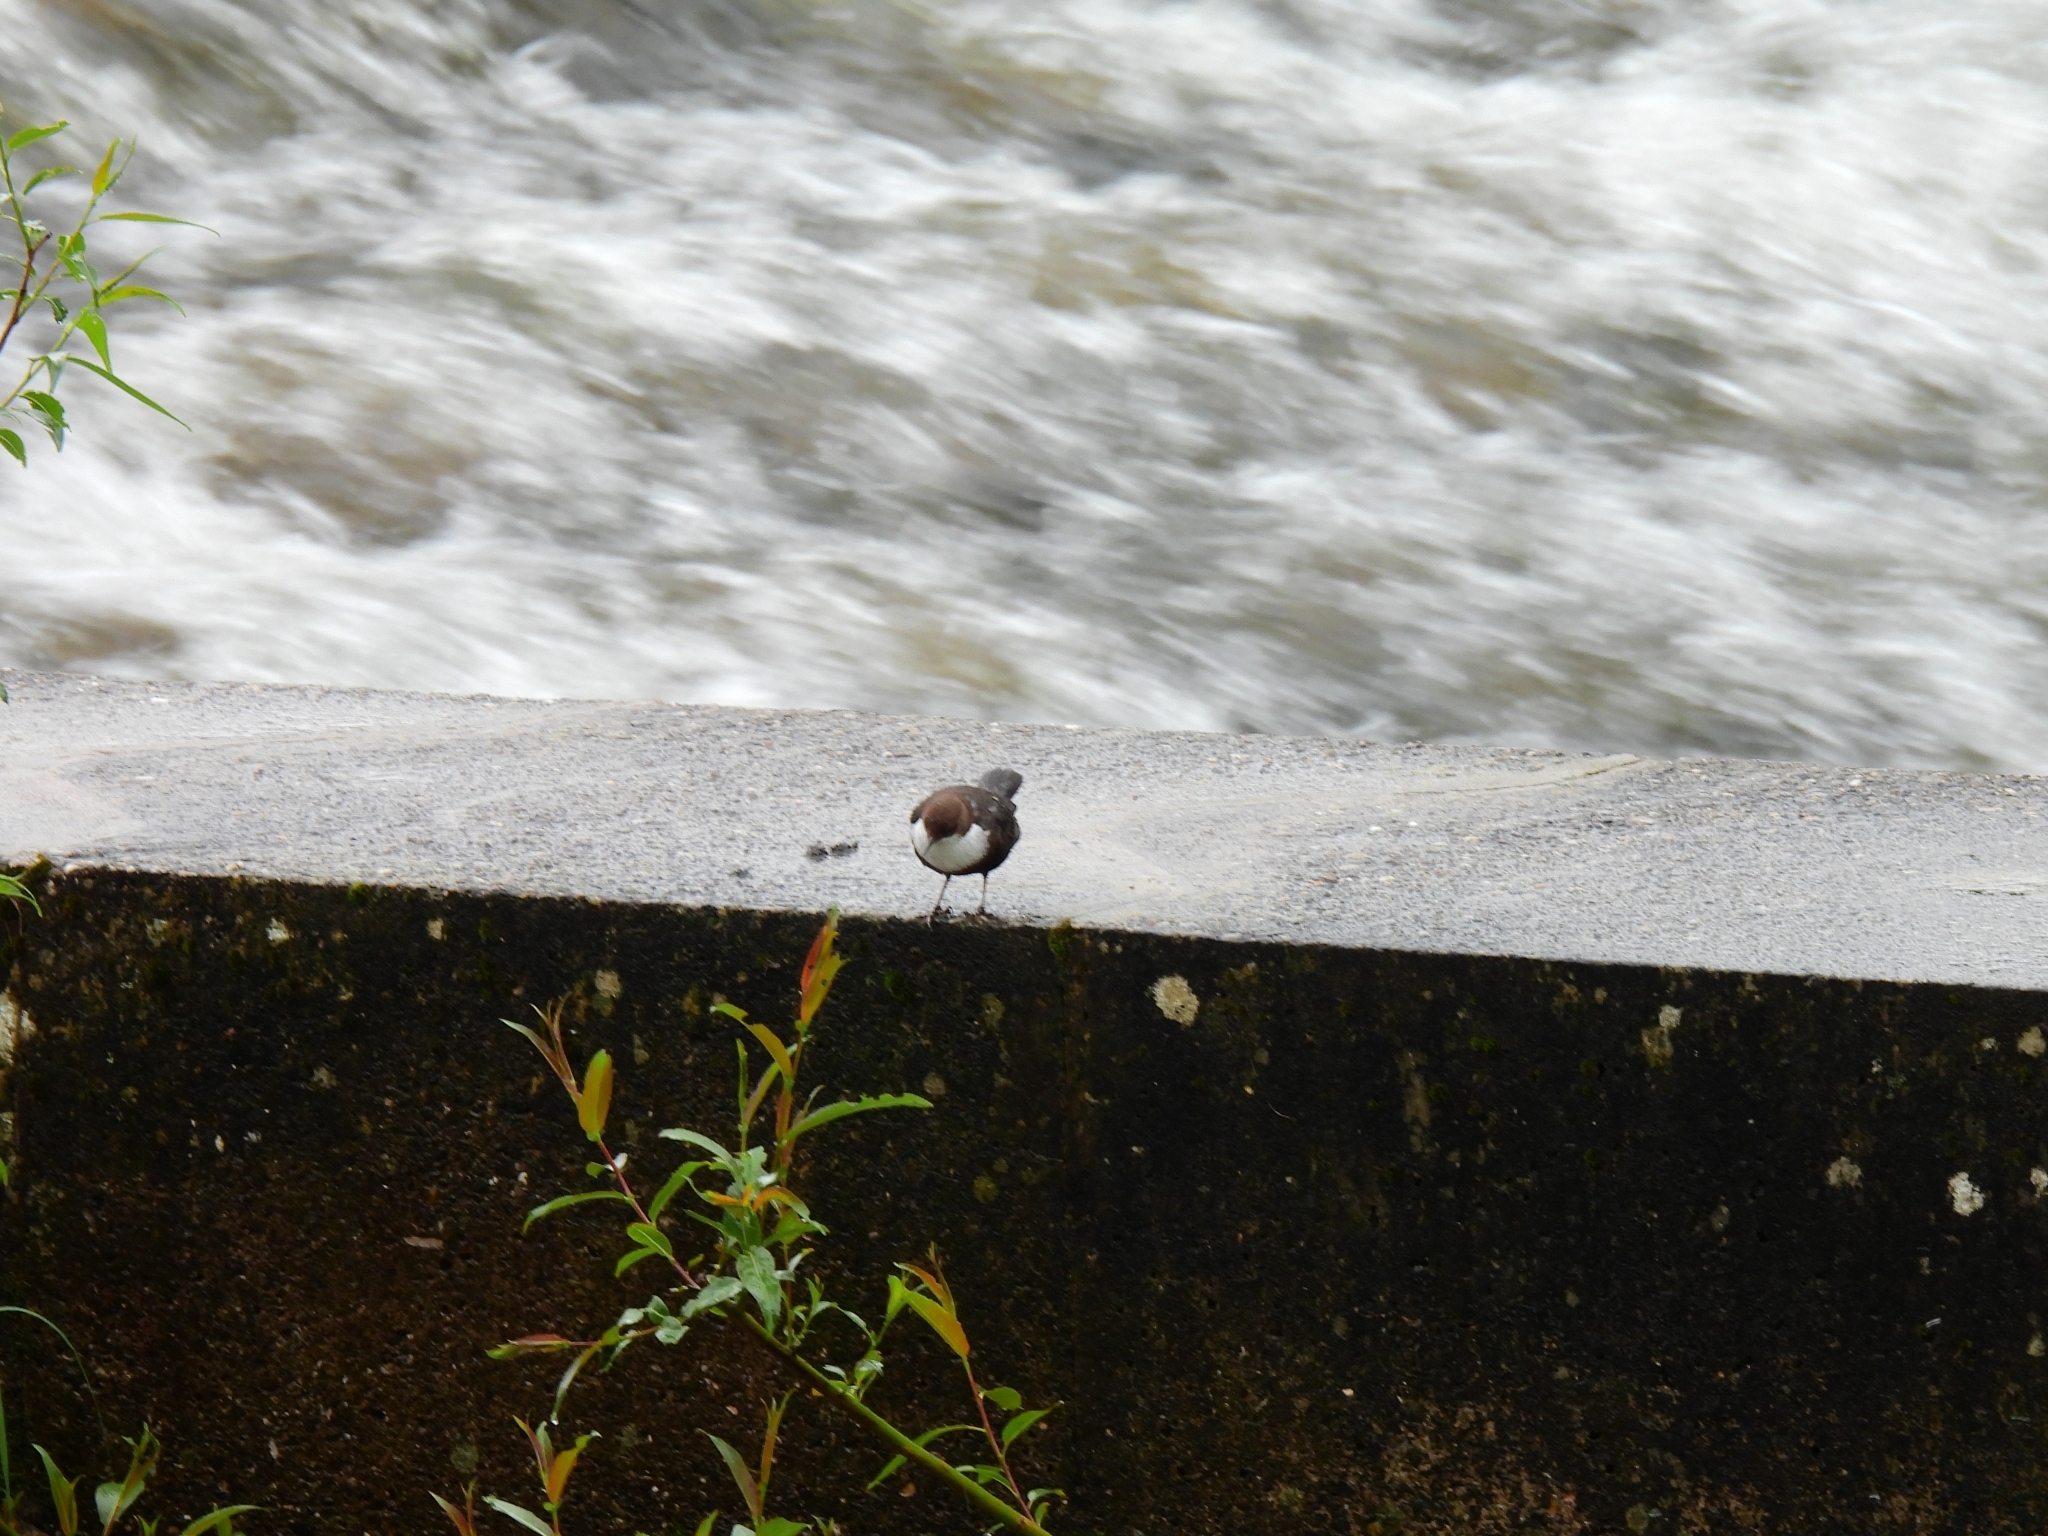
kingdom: Animalia
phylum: Chordata
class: Aves
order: Passeriformes
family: Cinclidae
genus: Cinclus
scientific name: Cinclus cinclus
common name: White-throated dipper
